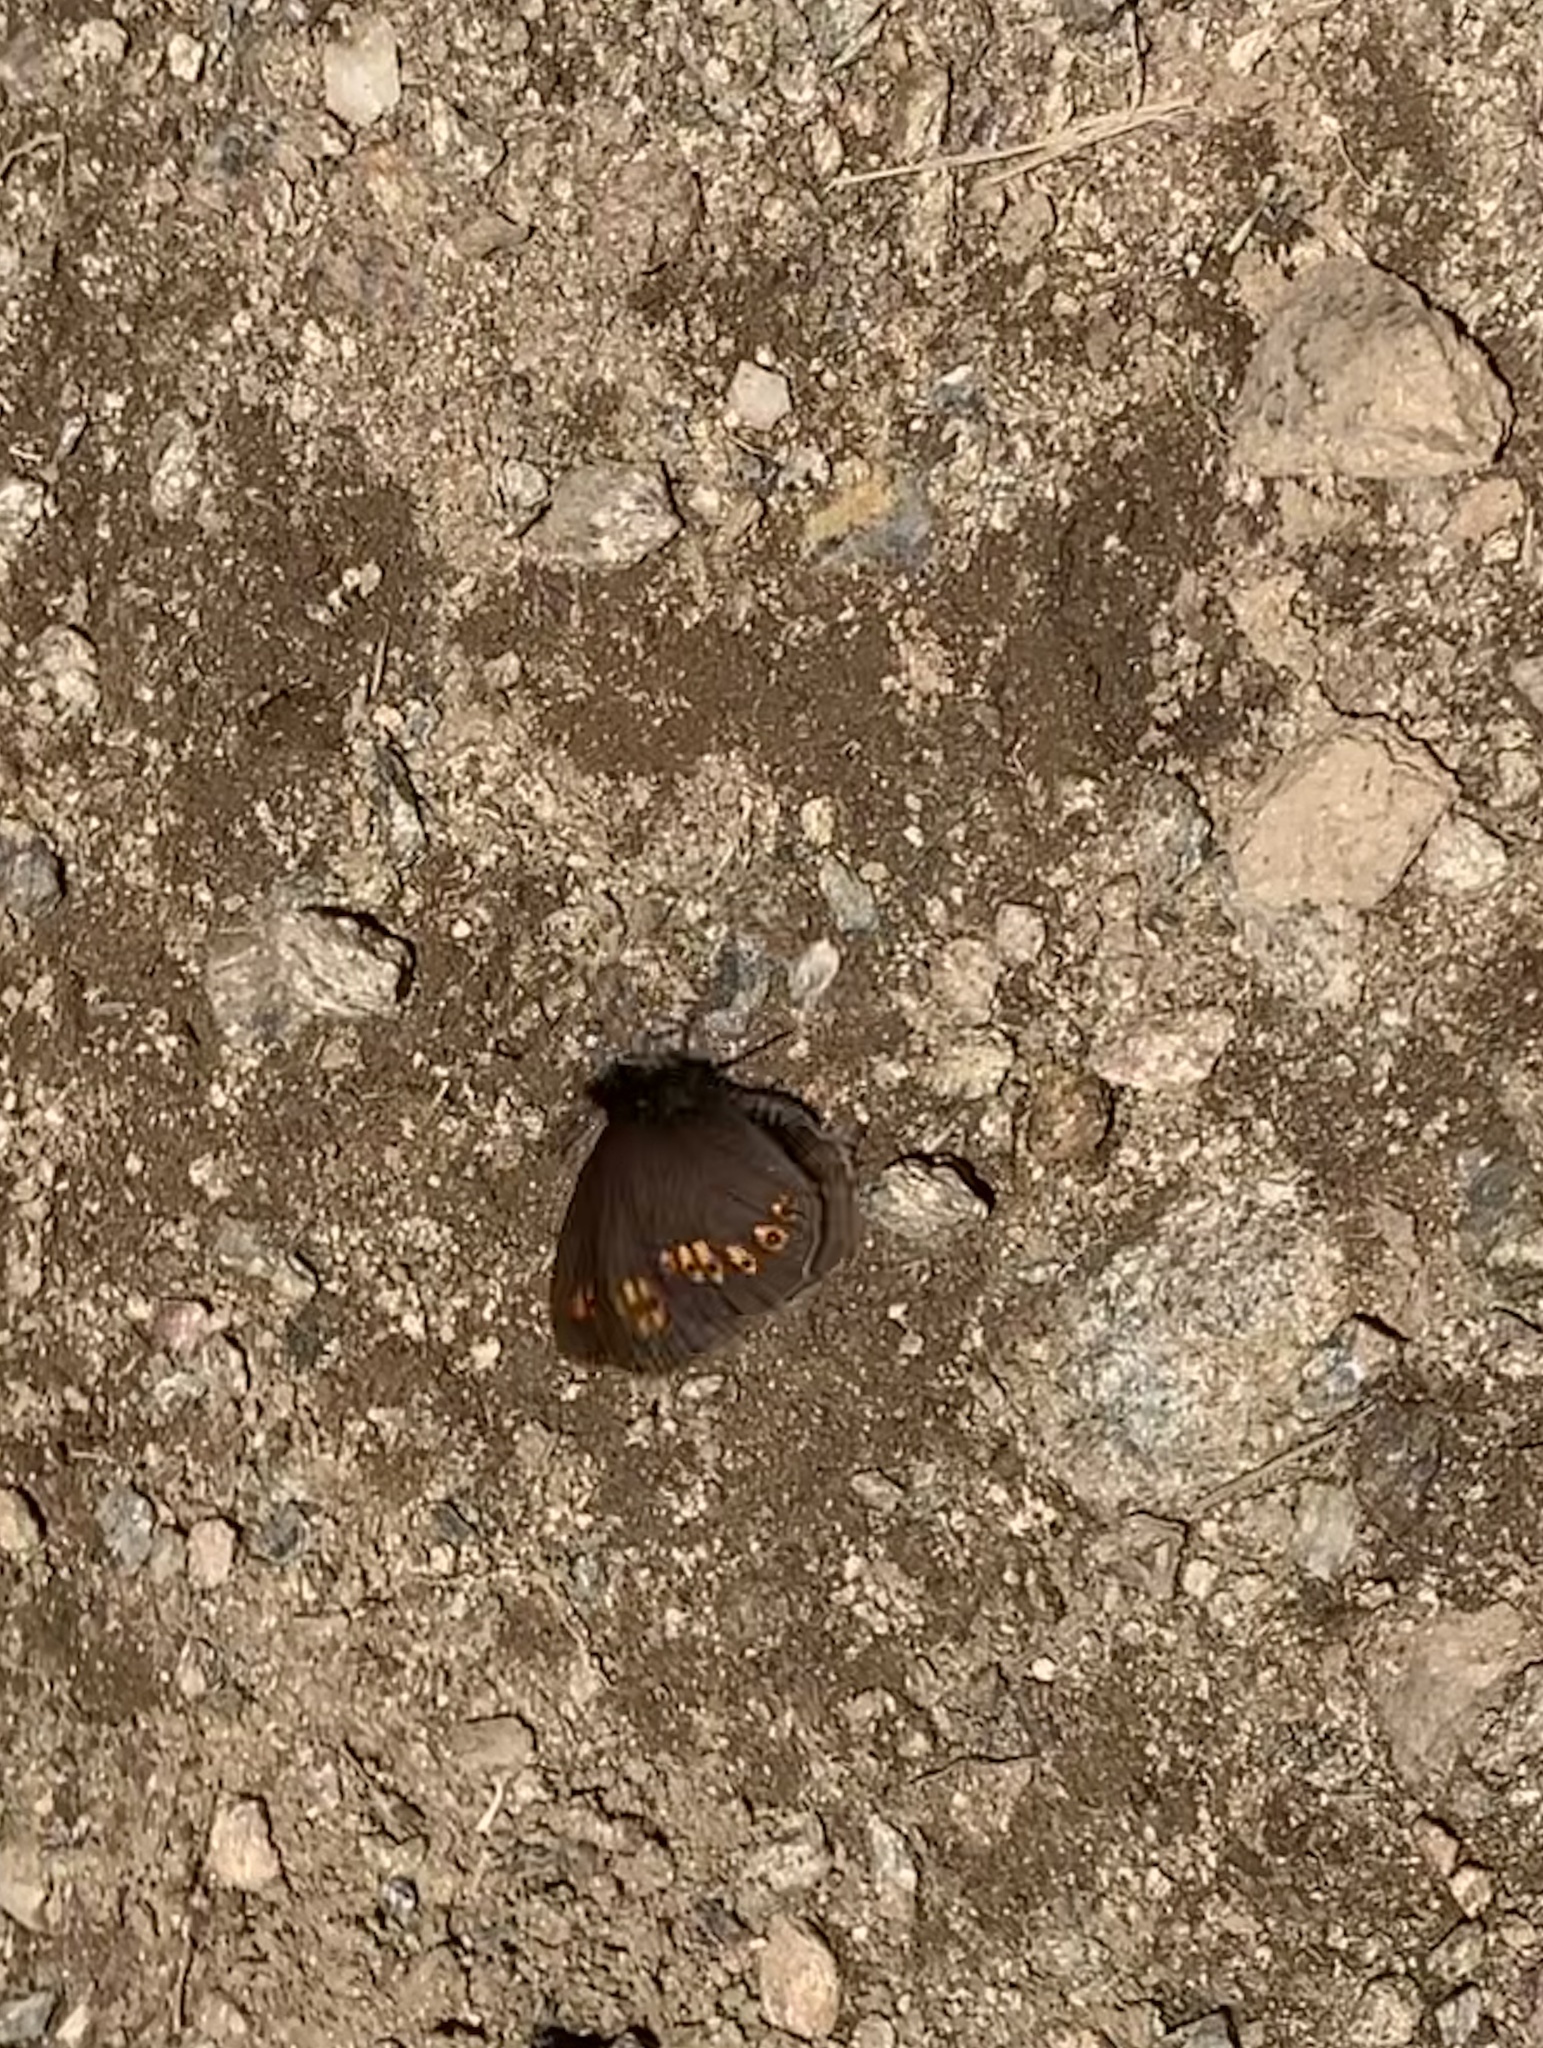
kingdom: Animalia
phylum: Arthropoda
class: Insecta
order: Lepidoptera
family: Nymphalidae
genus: Erebia
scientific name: Erebia alberganus
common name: Almond-eyed ringlet
